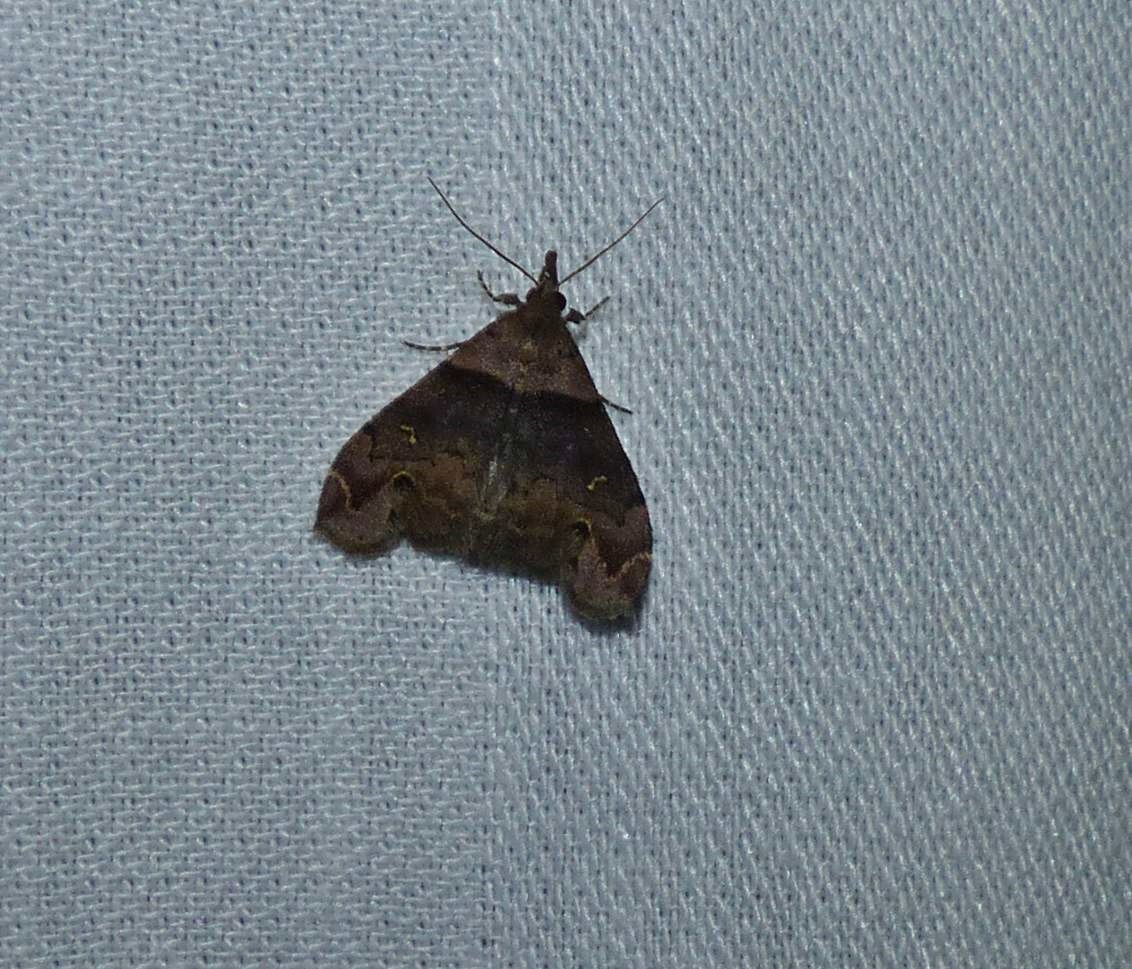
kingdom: Animalia
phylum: Arthropoda
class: Insecta
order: Lepidoptera
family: Erebidae
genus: Lascoria
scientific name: Lascoria ambigualis
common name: Ambiguous moth
